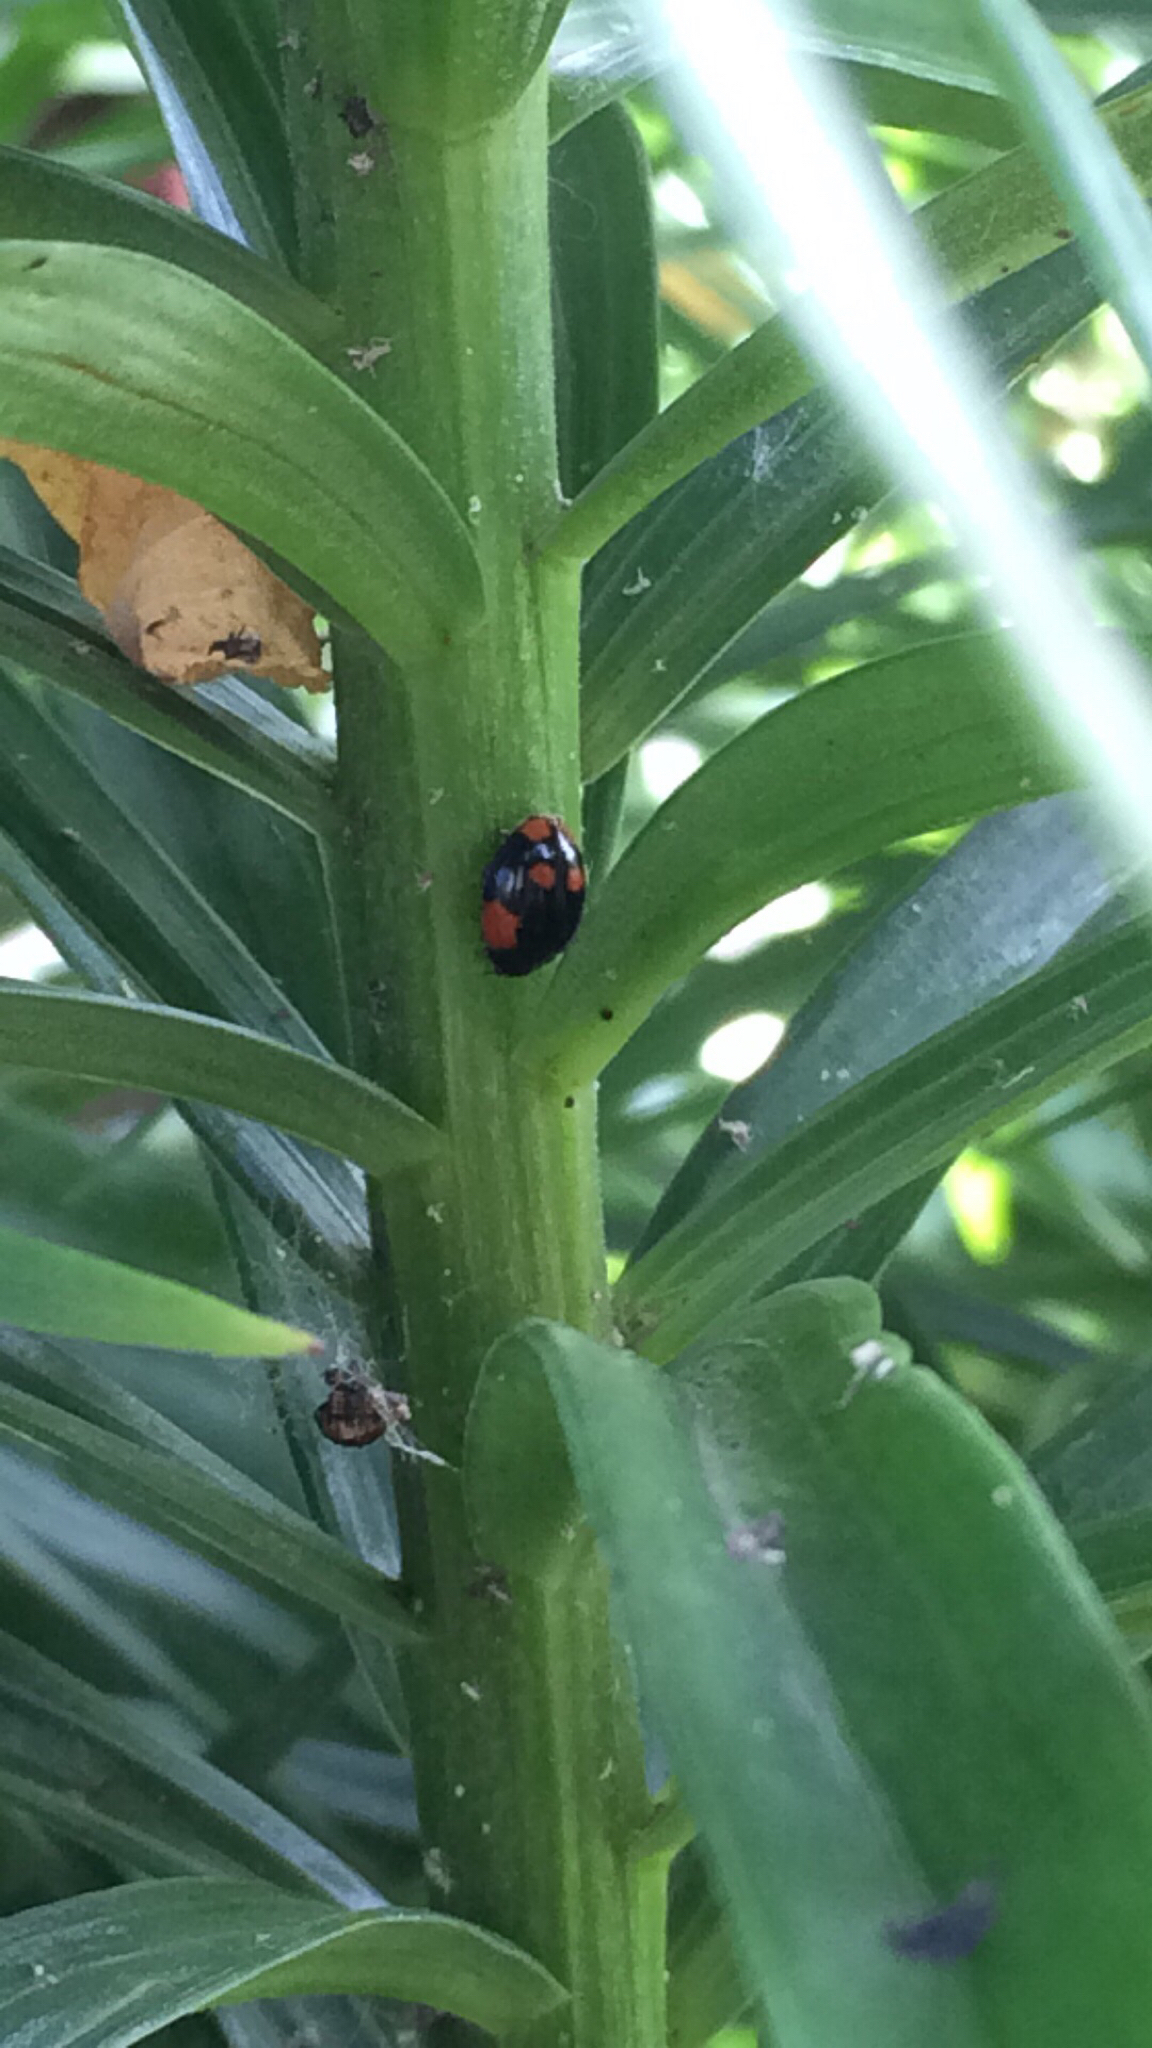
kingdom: Animalia
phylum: Arthropoda
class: Insecta
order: Coleoptera
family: Coccinellidae
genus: Adalia
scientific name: Adalia bipunctata
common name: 2-spot ladybird
